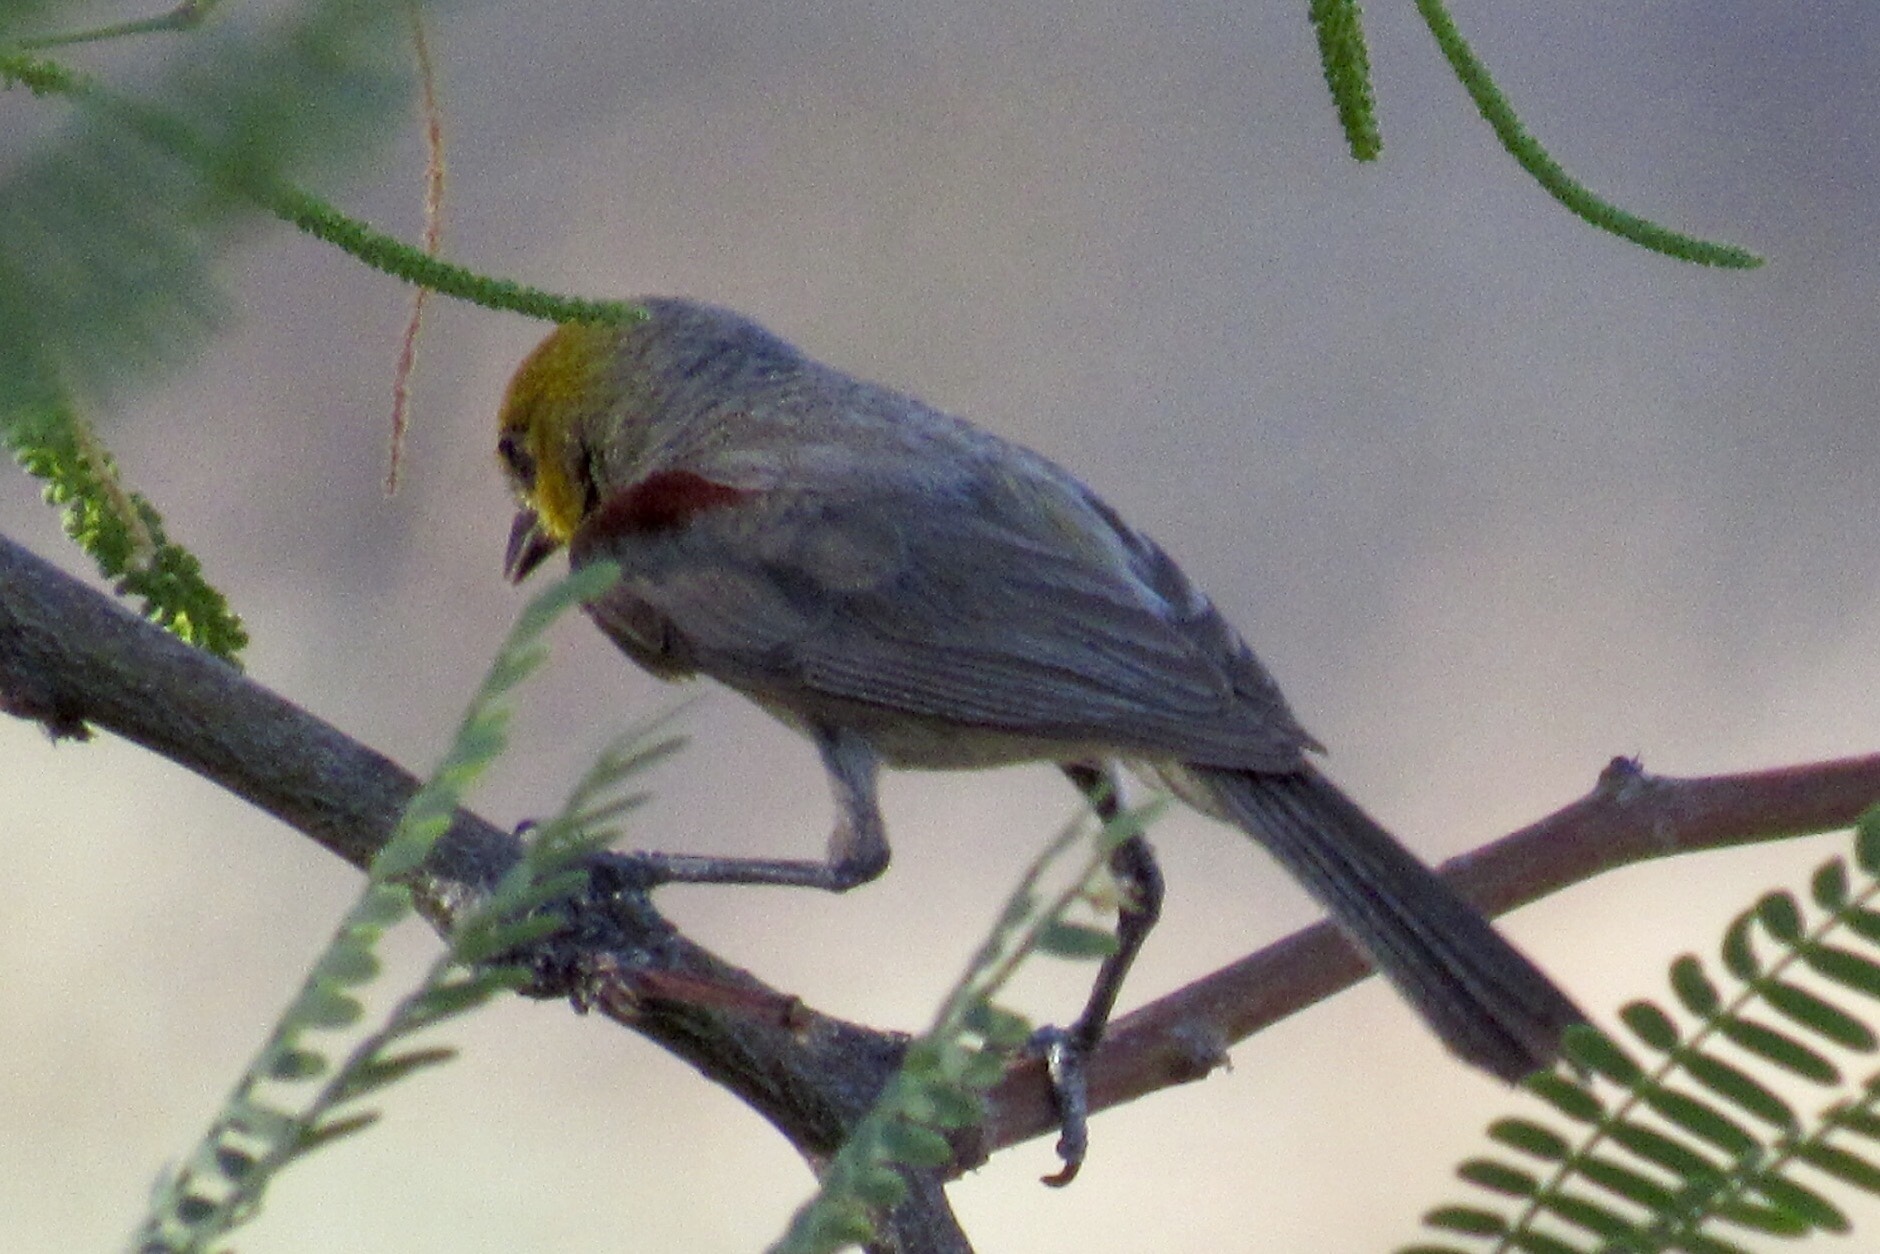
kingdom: Animalia
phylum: Chordata
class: Aves
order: Passeriformes
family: Remizidae
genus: Auriparus
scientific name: Auriparus flaviceps
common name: Verdin
